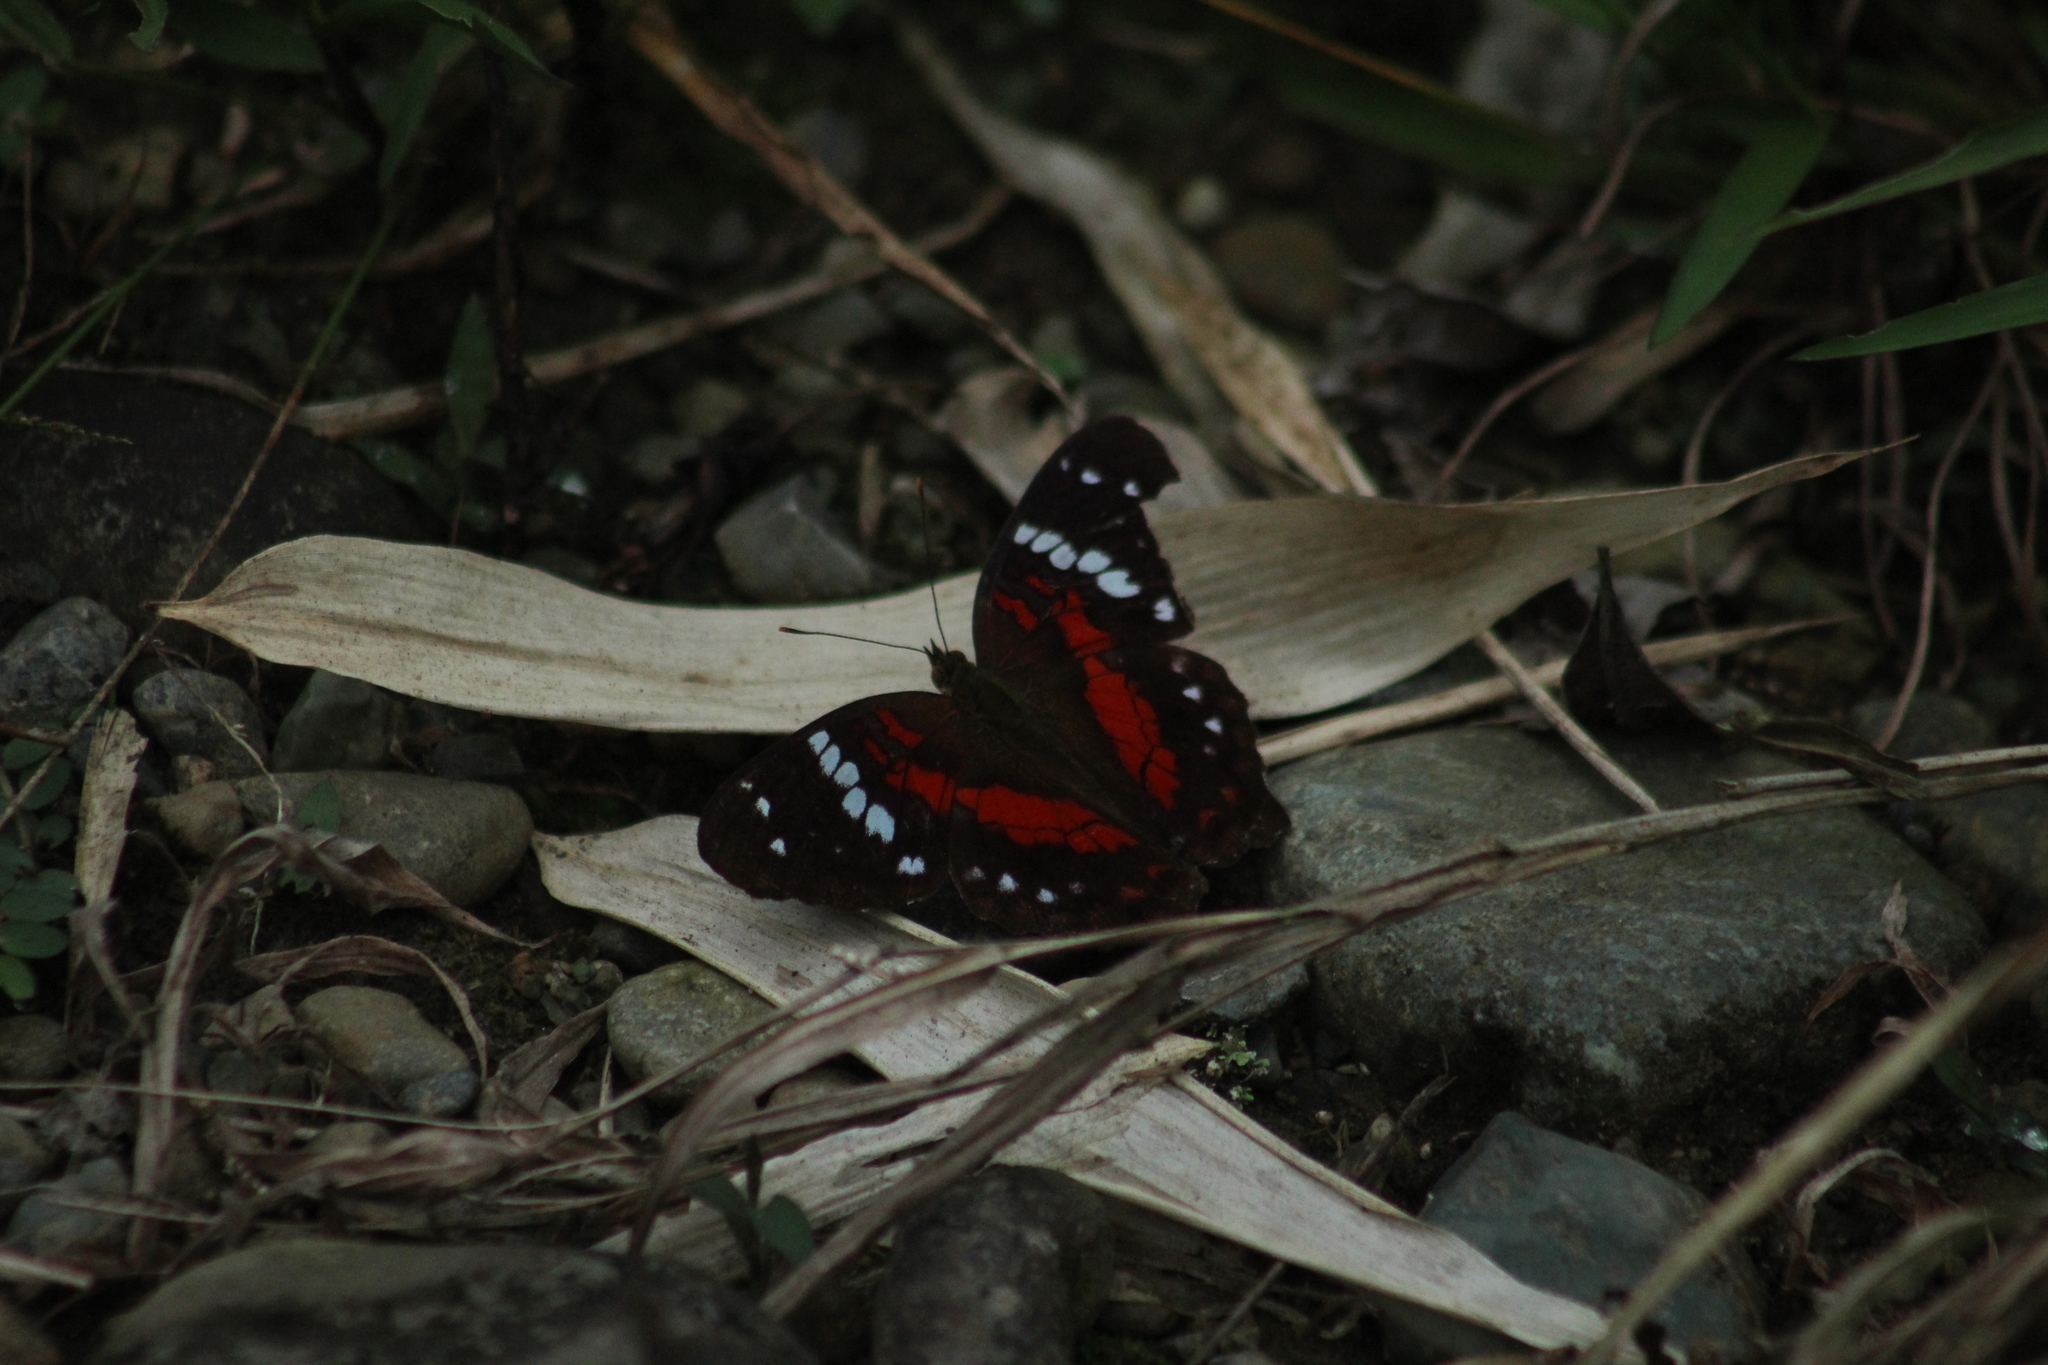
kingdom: Animalia
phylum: Arthropoda
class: Insecta
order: Lepidoptera
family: Nymphalidae
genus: Anartia
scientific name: Anartia amathea
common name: Red peacock
